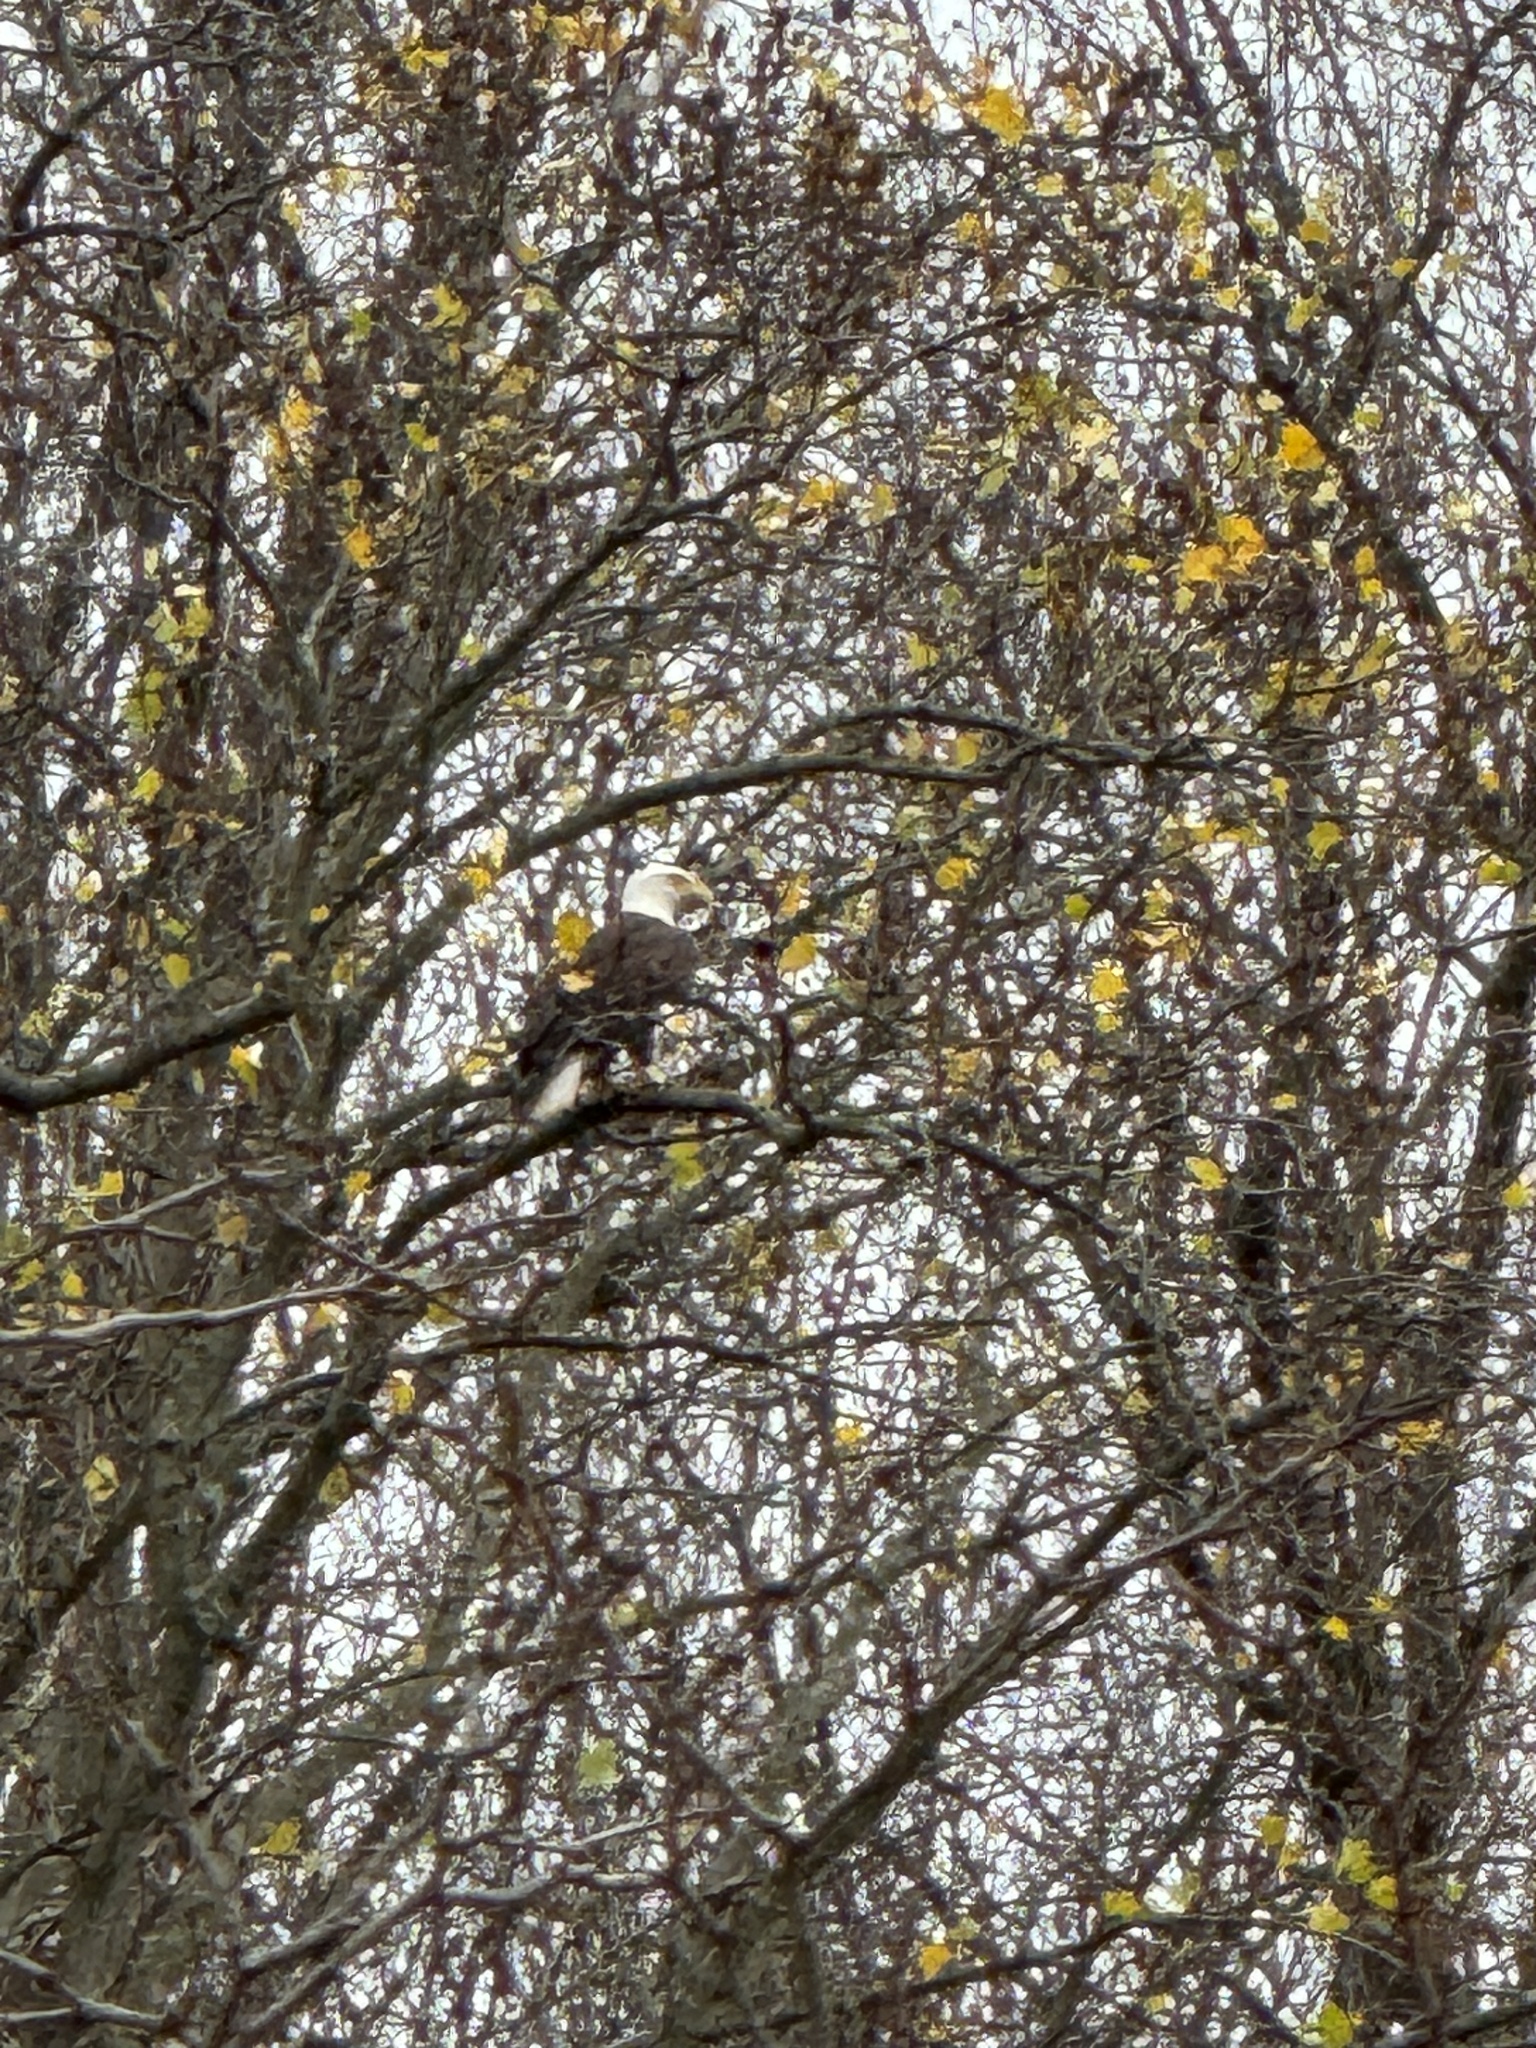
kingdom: Animalia
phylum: Chordata
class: Aves
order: Accipitriformes
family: Accipitridae
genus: Haliaeetus
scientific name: Haliaeetus leucocephalus
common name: Bald eagle
